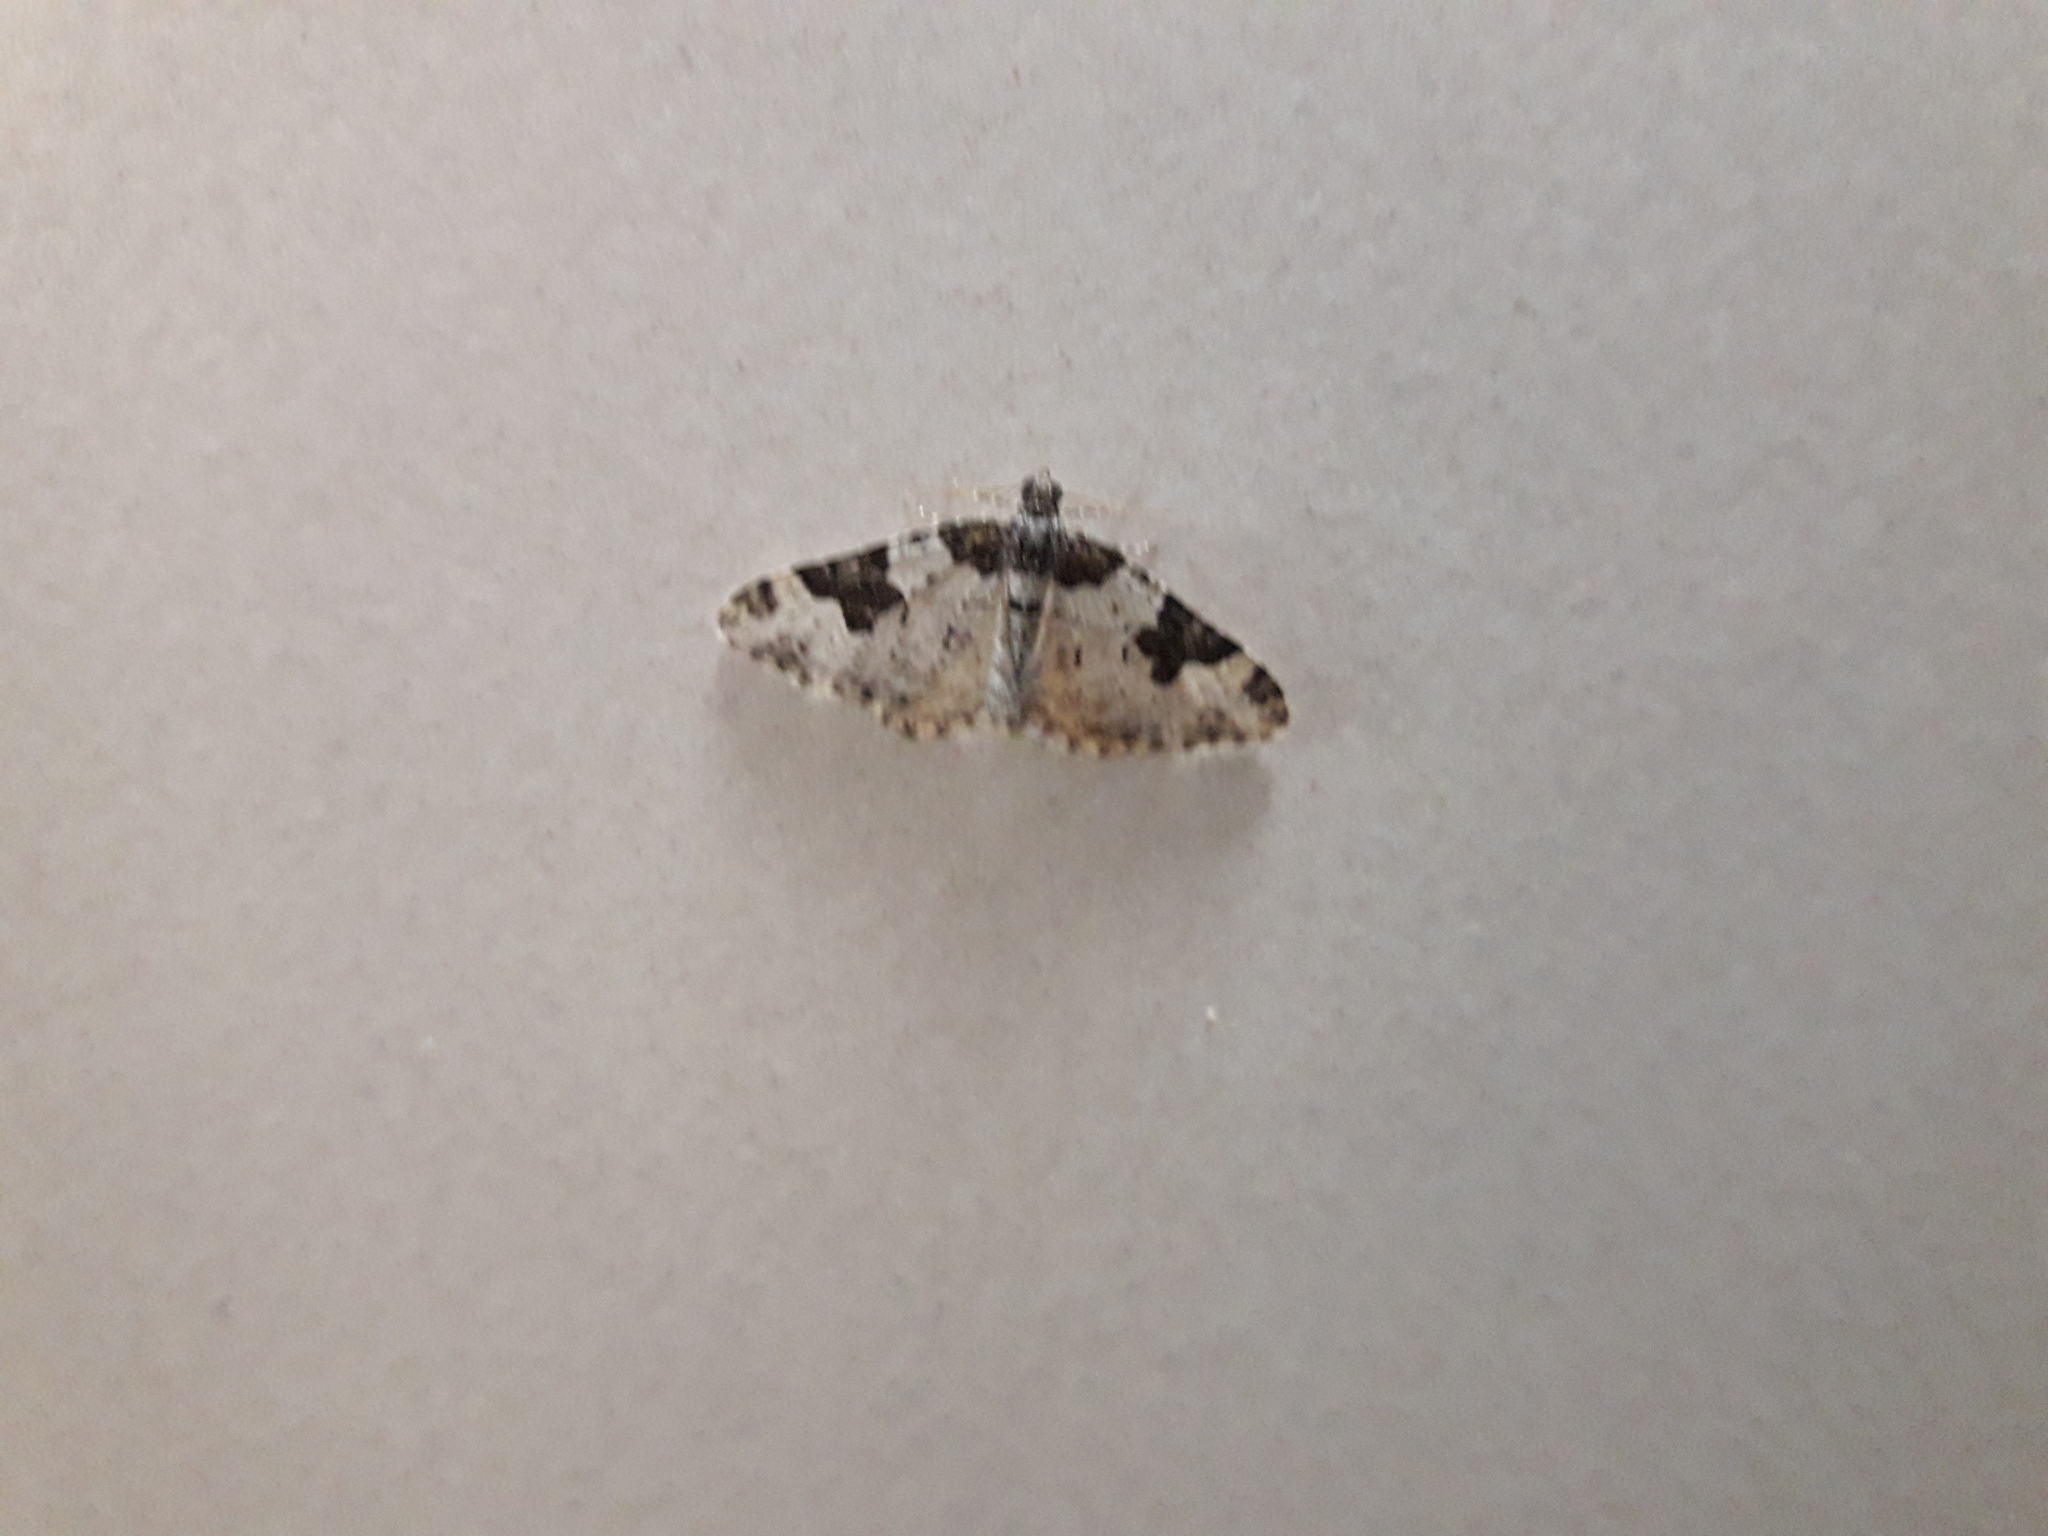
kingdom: Animalia
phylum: Arthropoda
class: Insecta
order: Lepidoptera
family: Geometridae
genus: Xanthorhoe
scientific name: Xanthorhoe fluctuata
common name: Garden carpet
